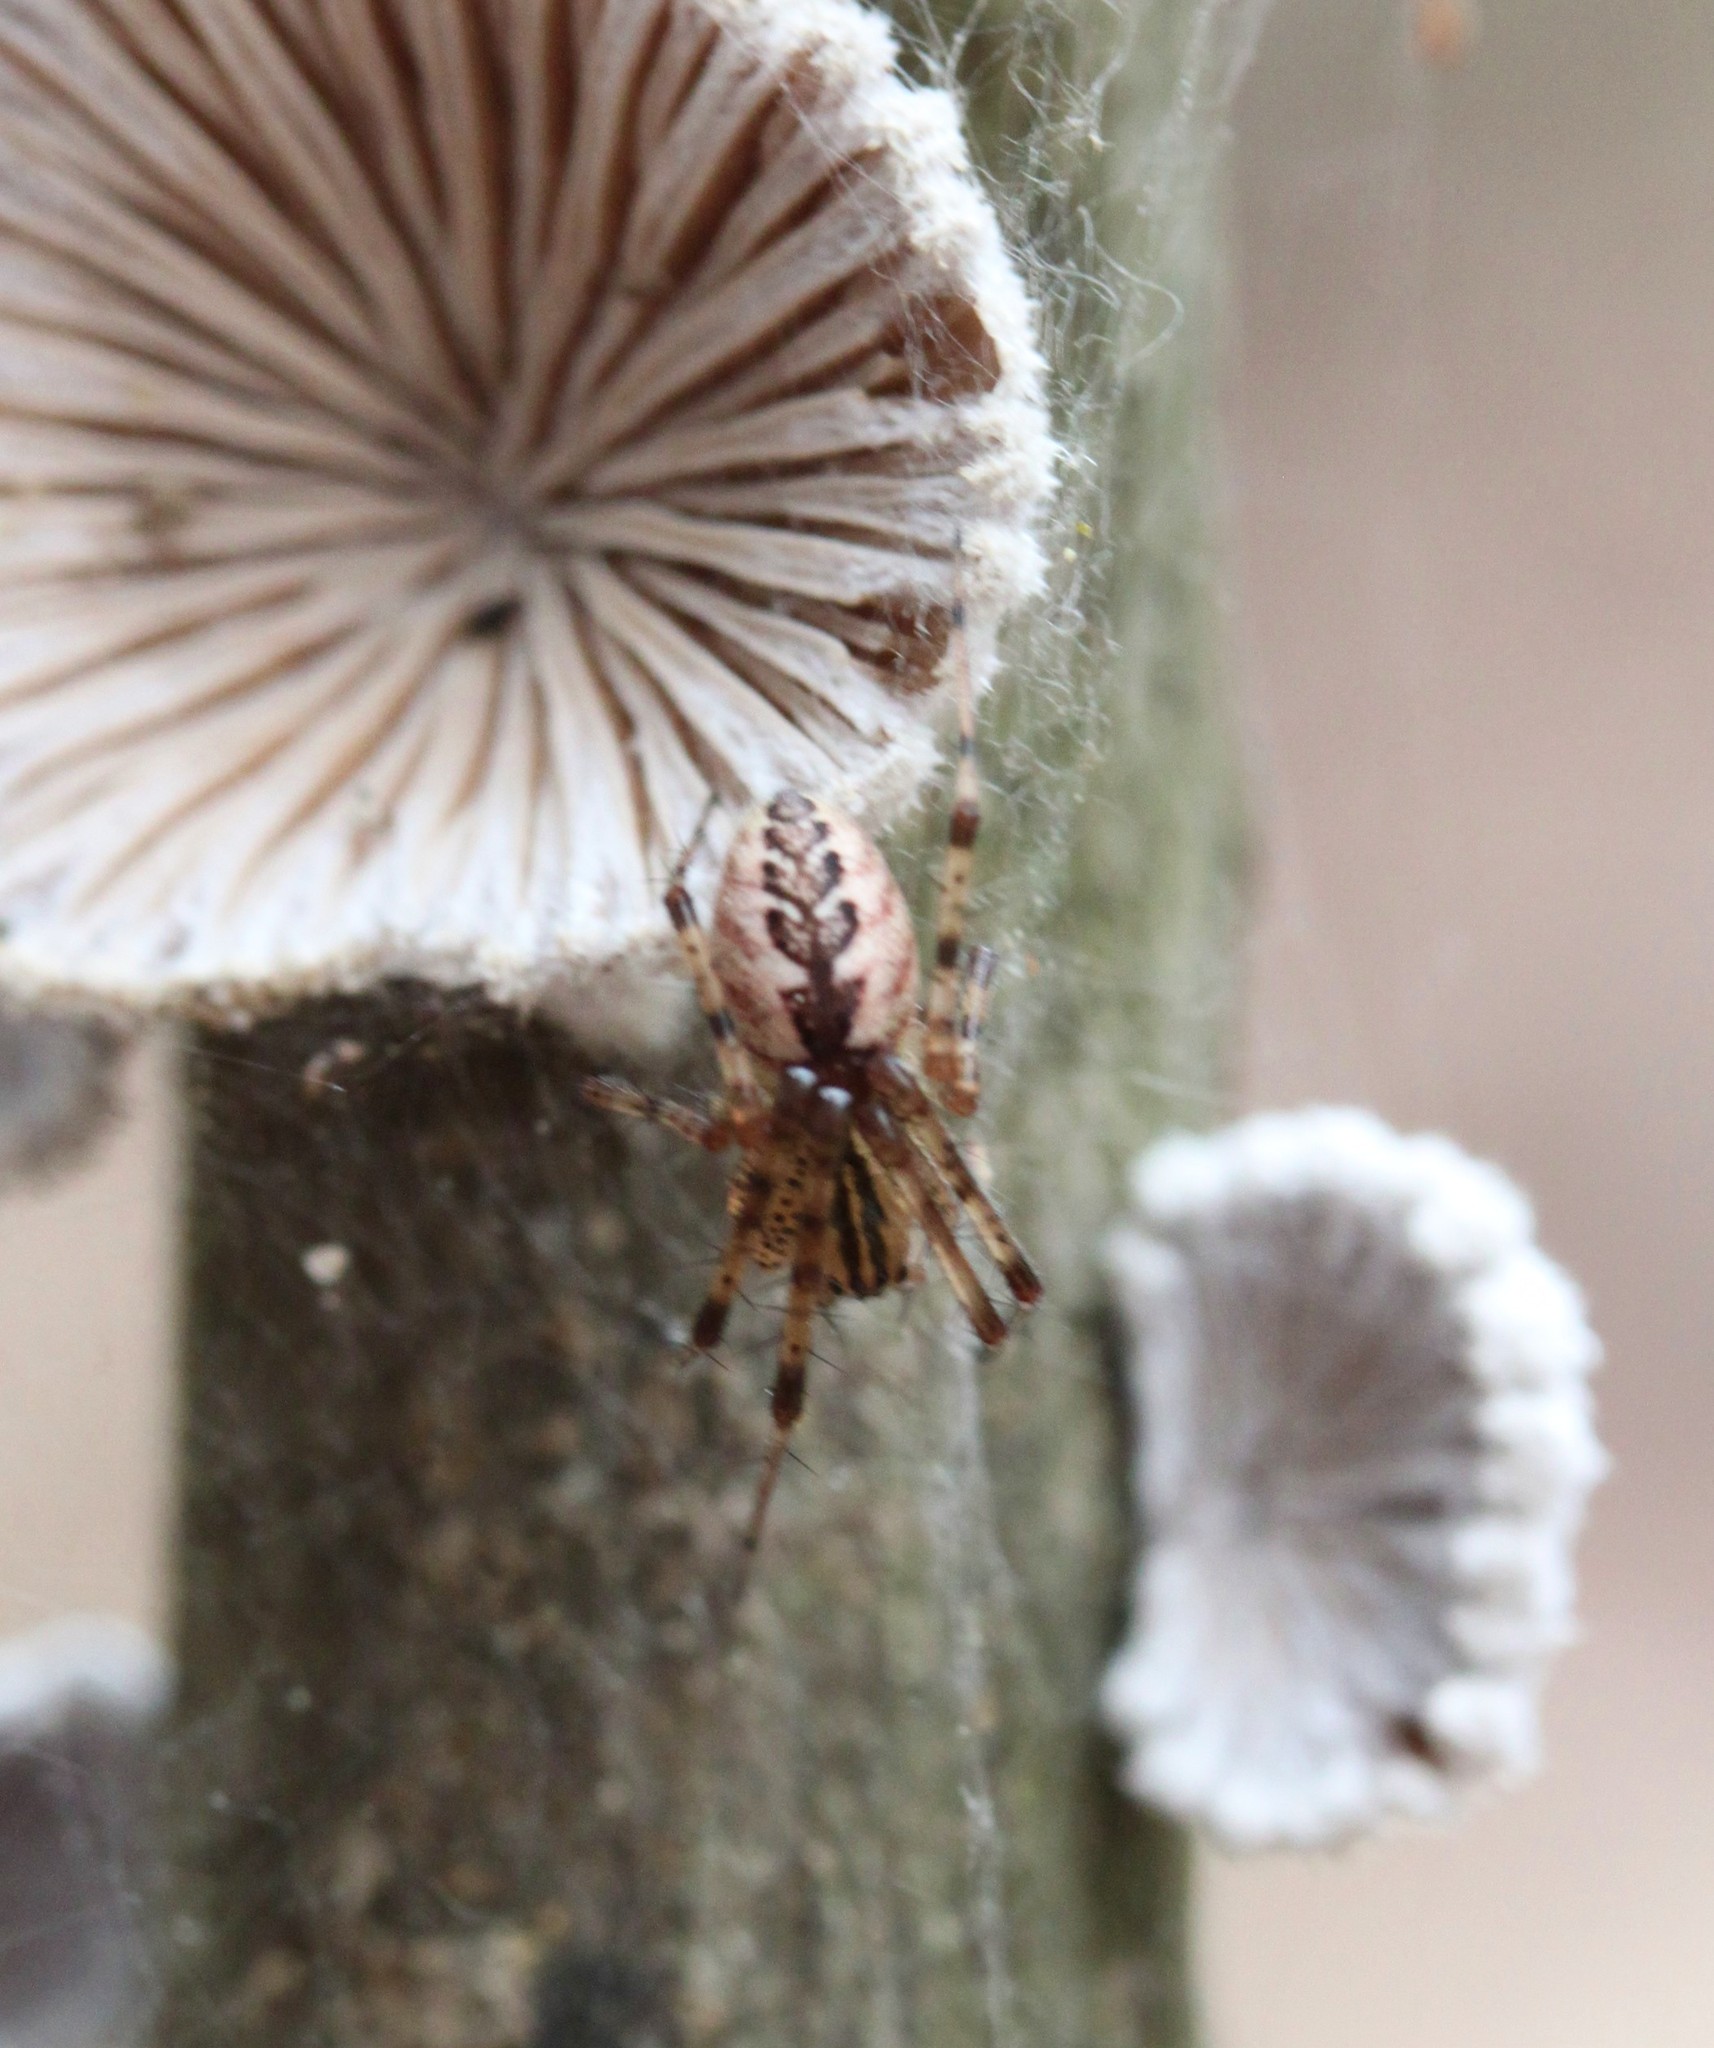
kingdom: Animalia
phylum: Arthropoda
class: Arachnida
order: Araneae
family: Linyphiidae
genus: Pityohyphantes
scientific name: Pityohyphantes costatus
